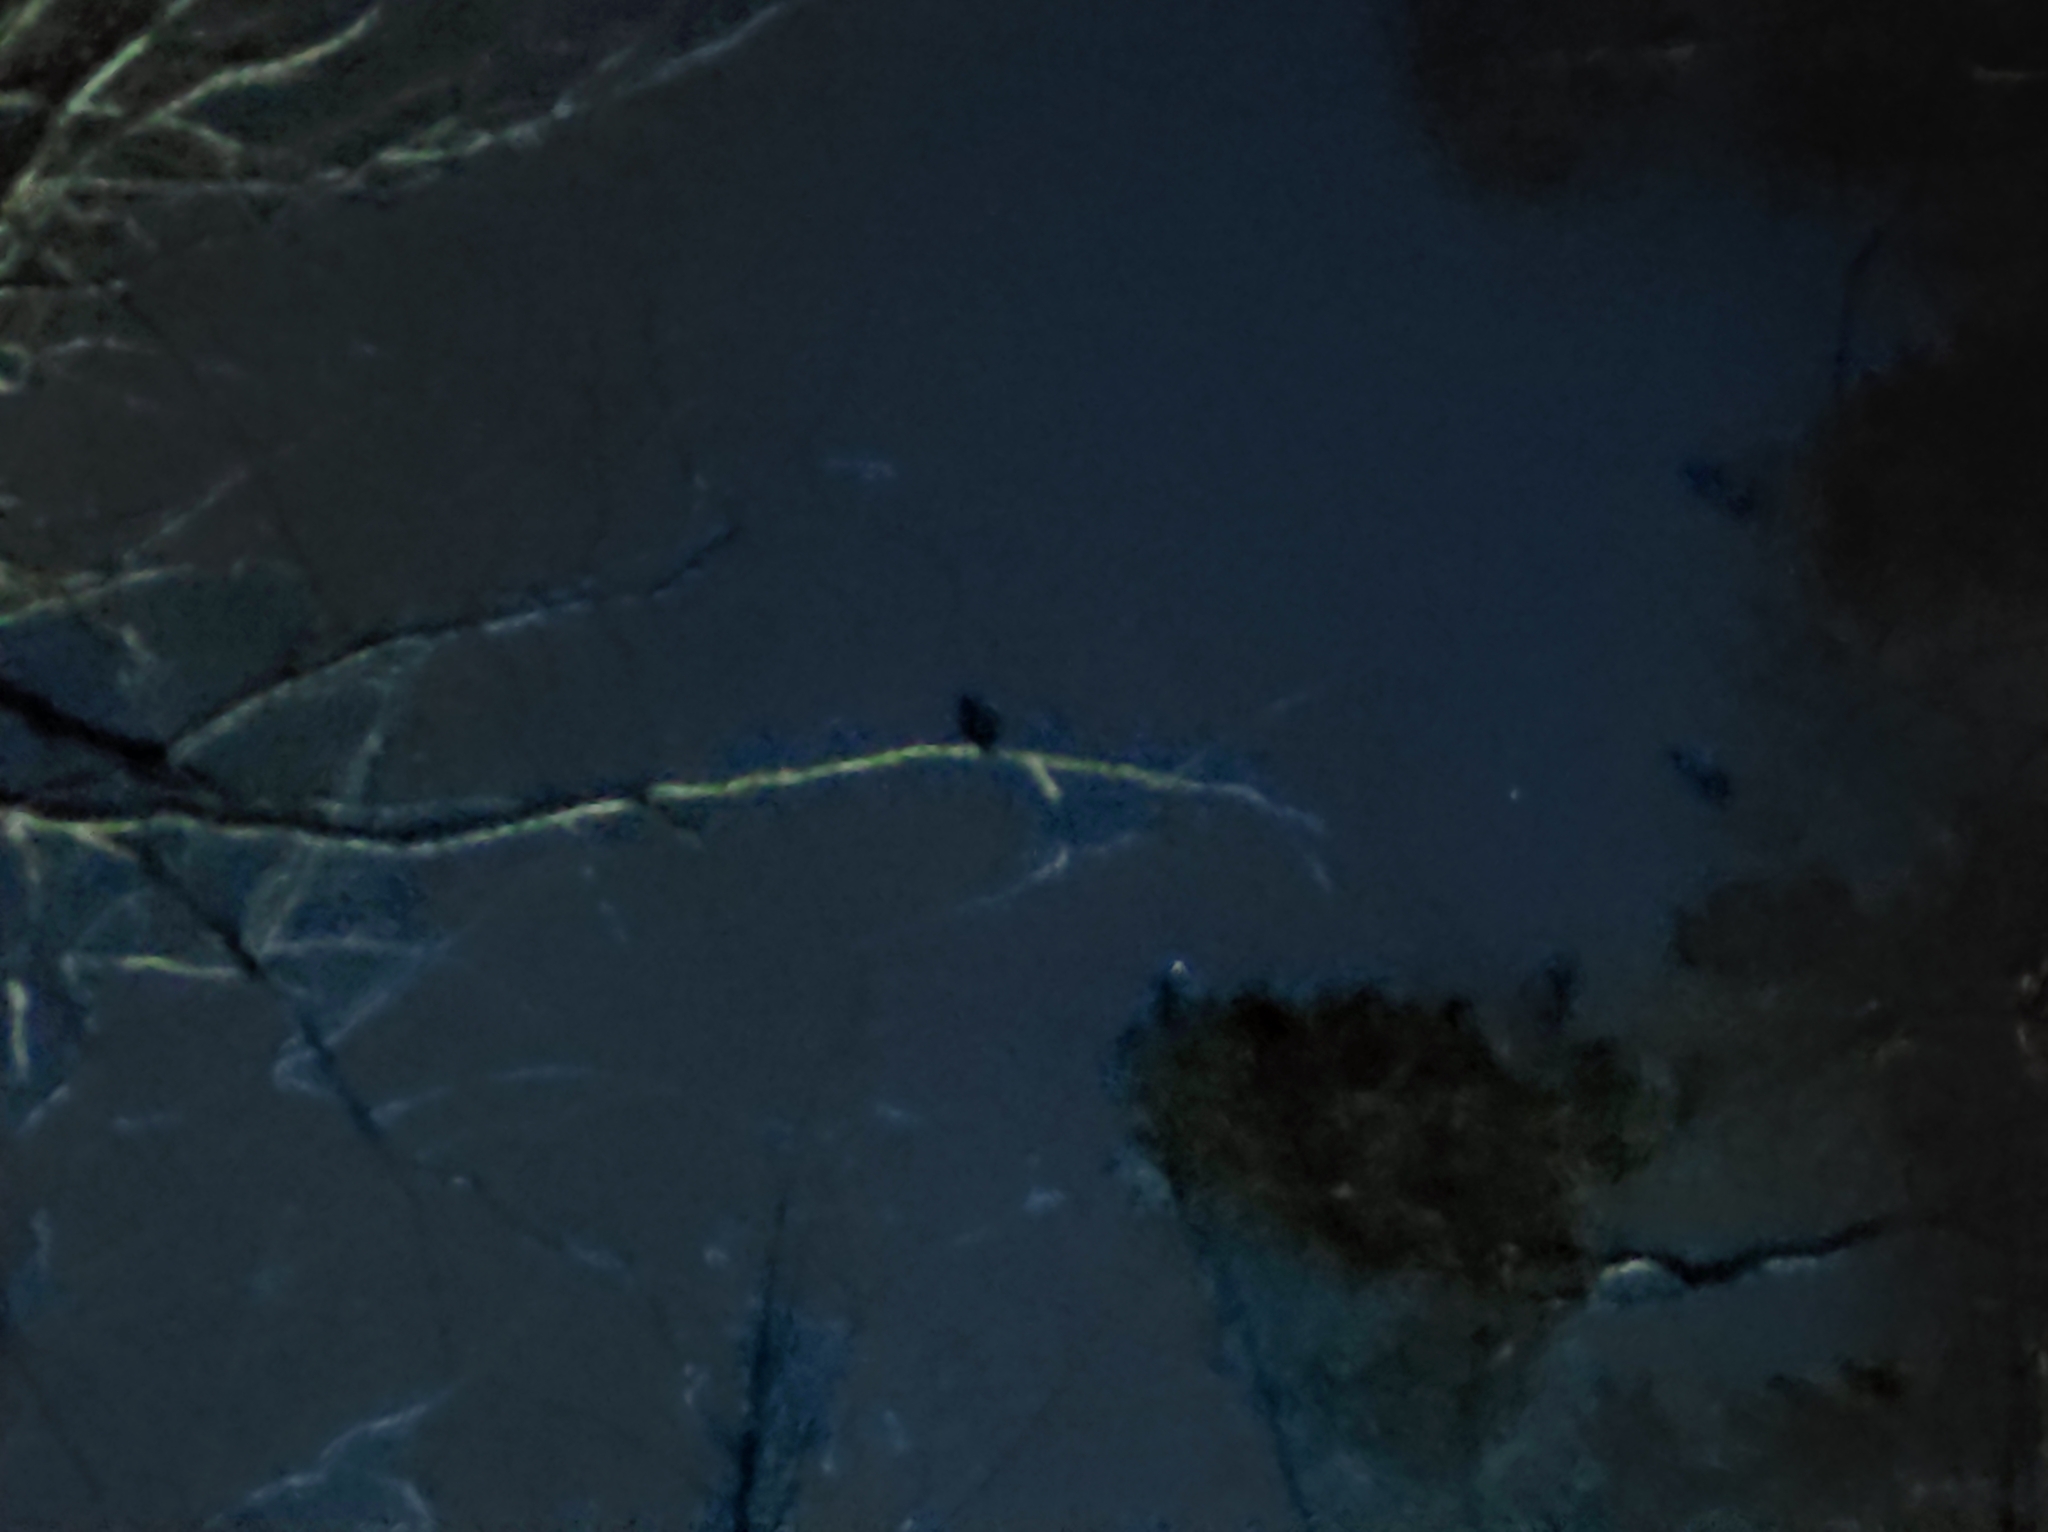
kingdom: Animalia
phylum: Chordata
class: Aves
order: Strigiformes
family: Strigidae
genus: Strix
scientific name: Strix uralensis
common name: Ural owl
